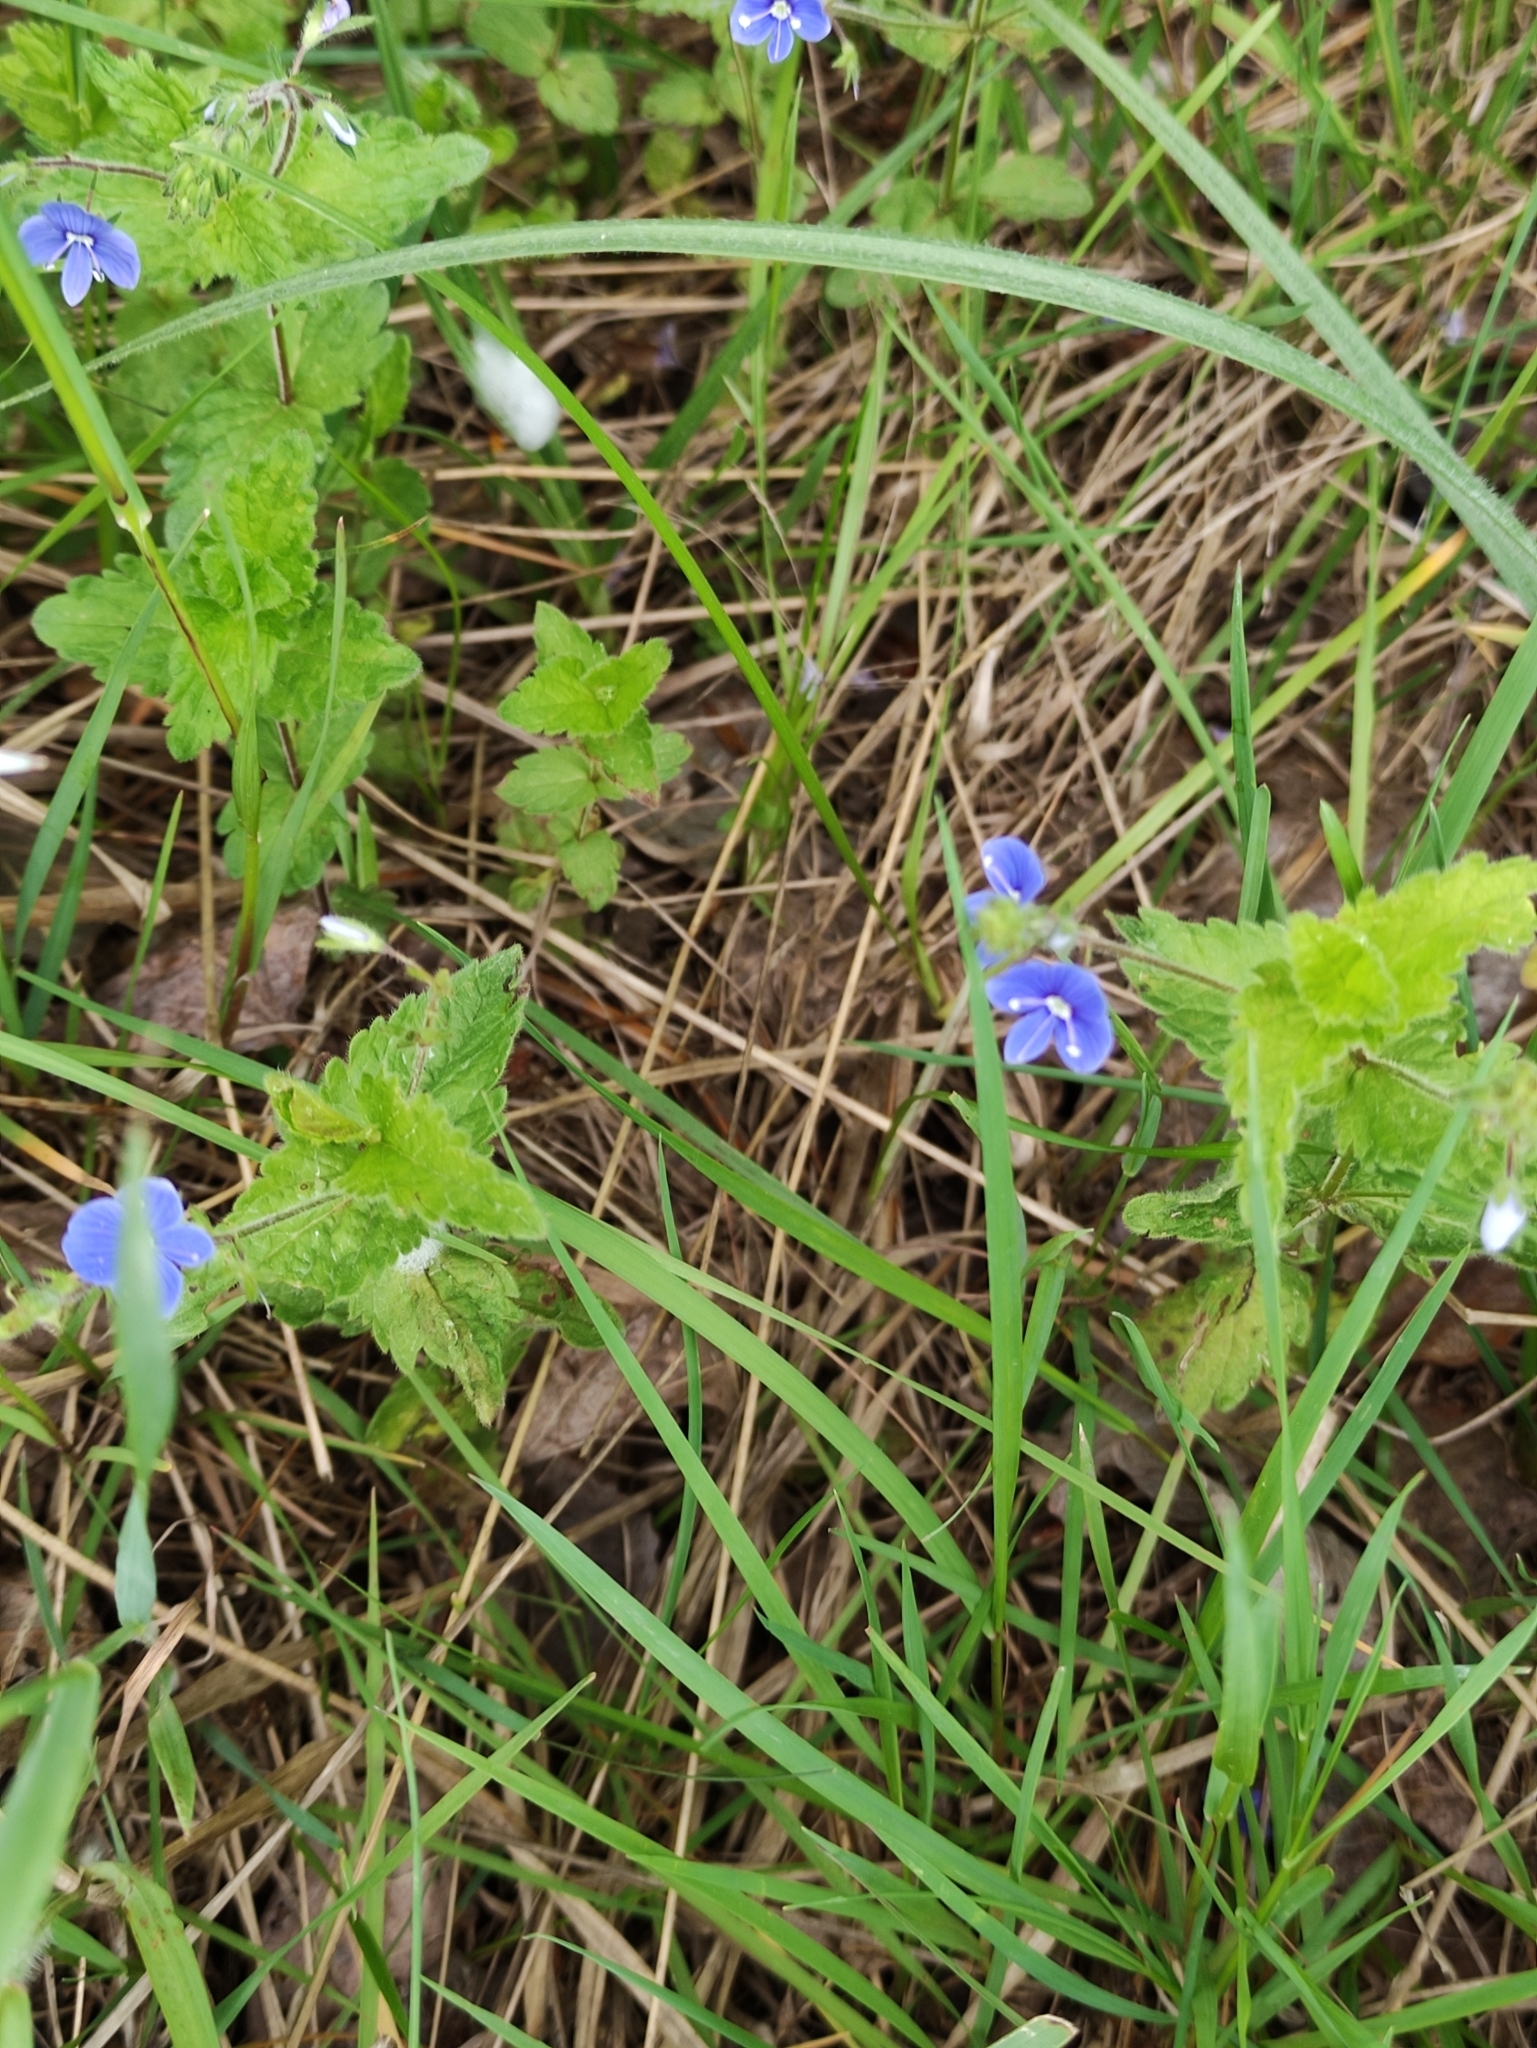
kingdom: Plantae
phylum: Tracheophyta
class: Magnoliopsida
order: Lamiales
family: Plantaginaceae
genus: Veronica
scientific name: Veronica chamaedrys
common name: Germander speedwell
